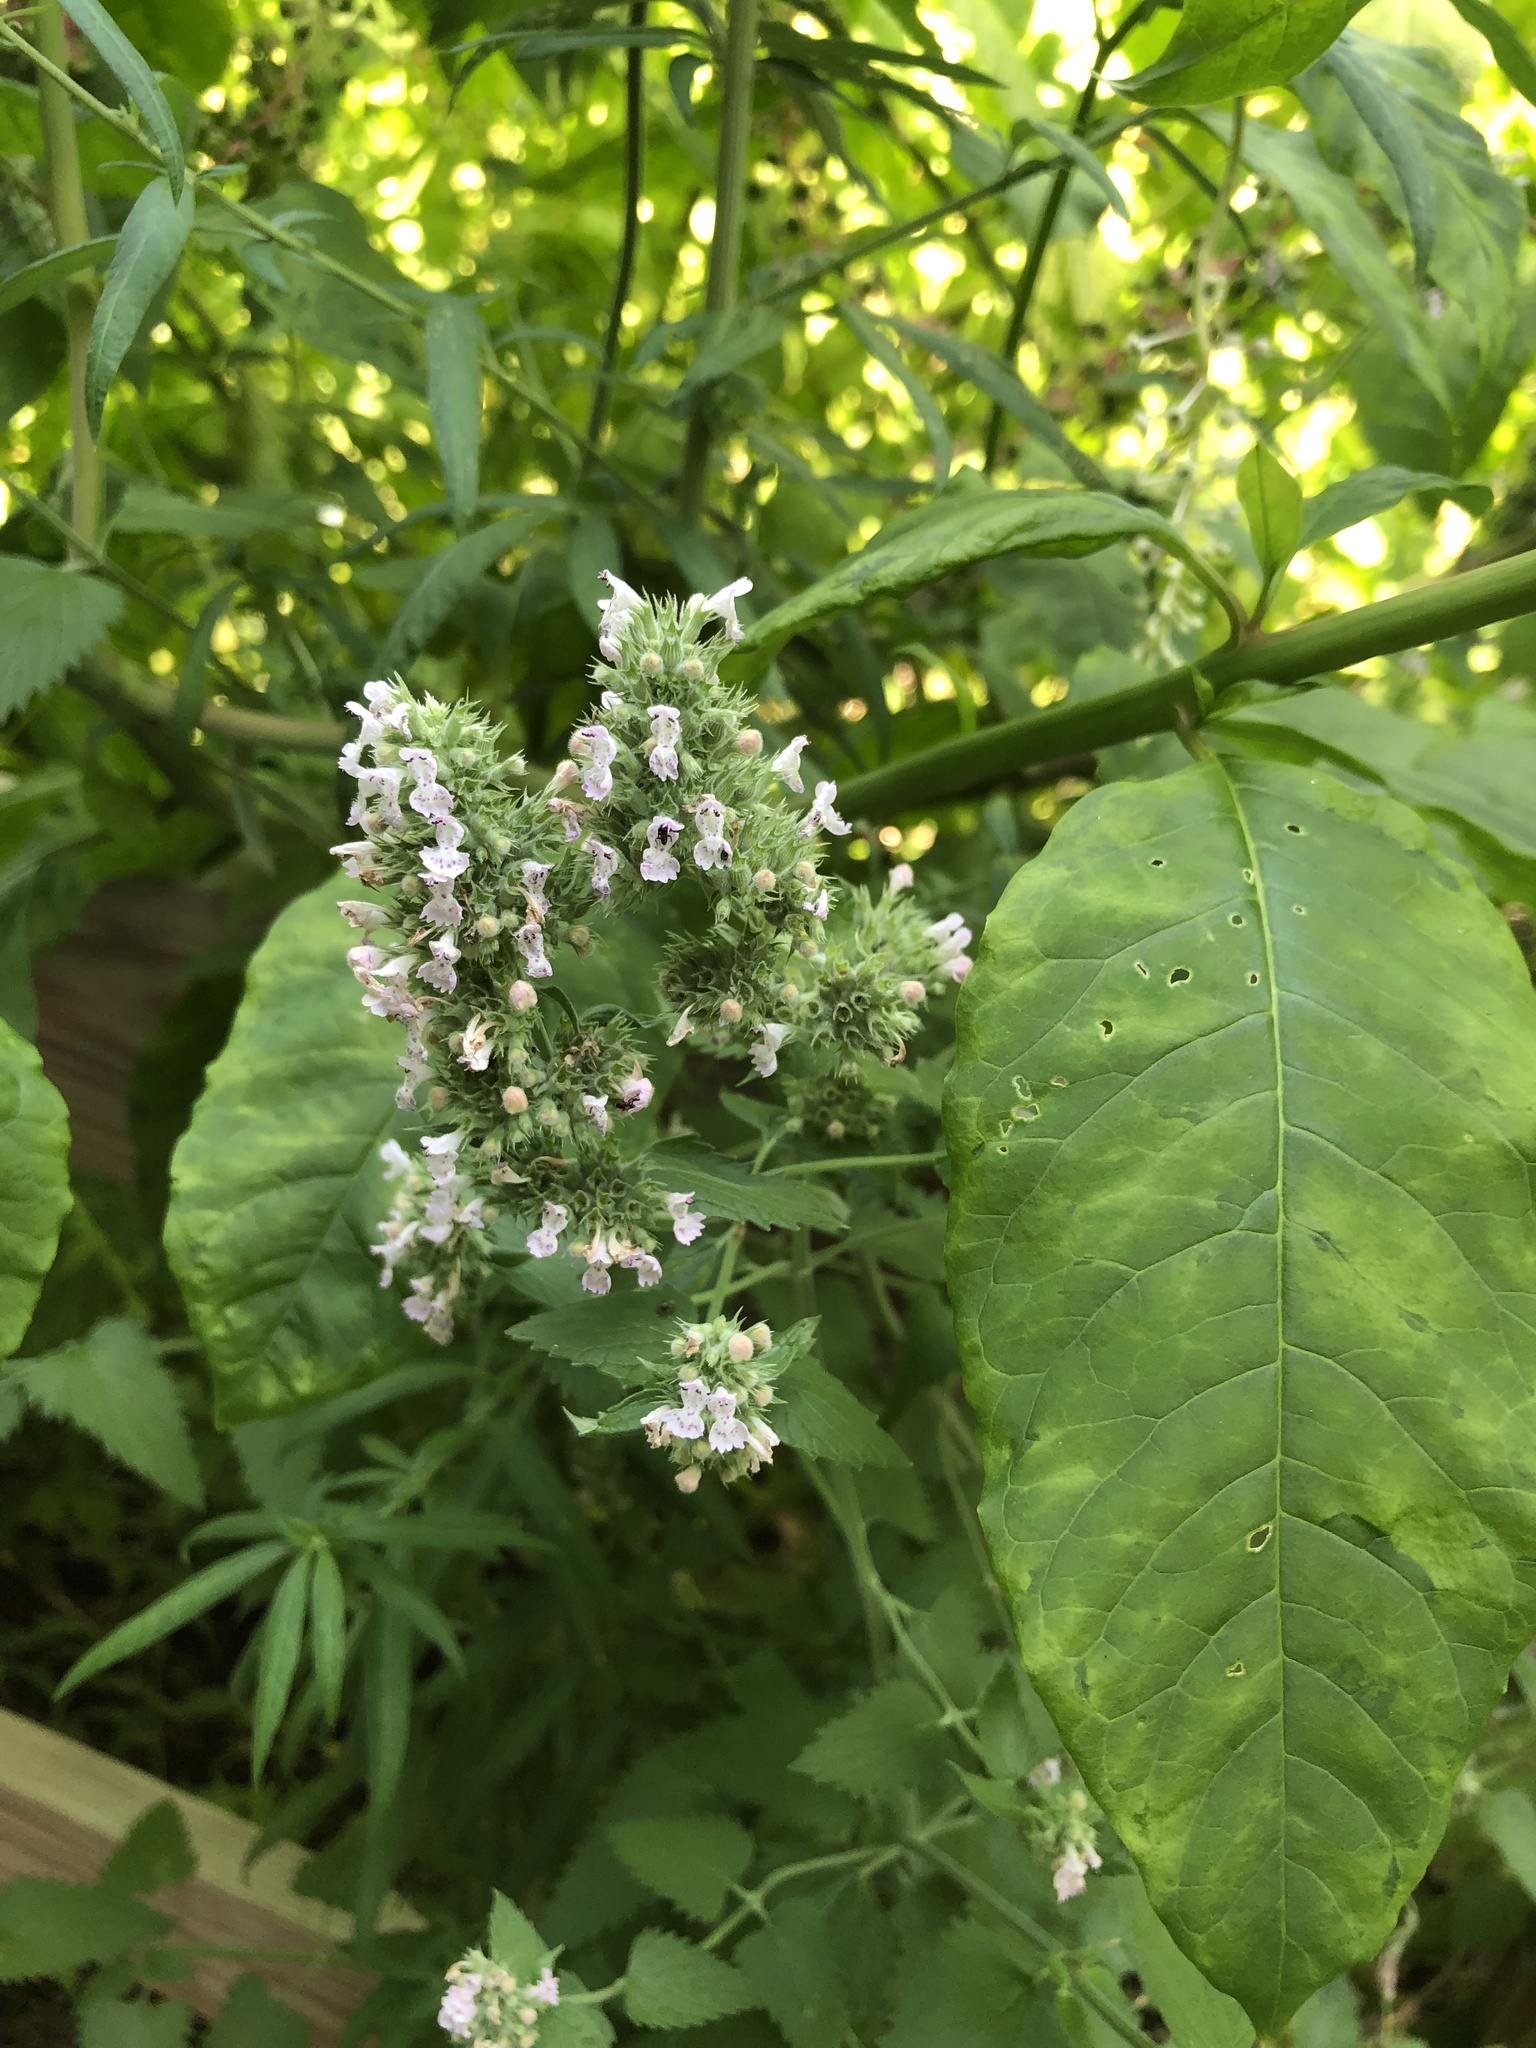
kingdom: Plantae
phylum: Tracheophyta
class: Magnoliopsida
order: Lamiales
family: Lamiaceae
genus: Nepeta
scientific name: Nepeta cataria
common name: Catnip
